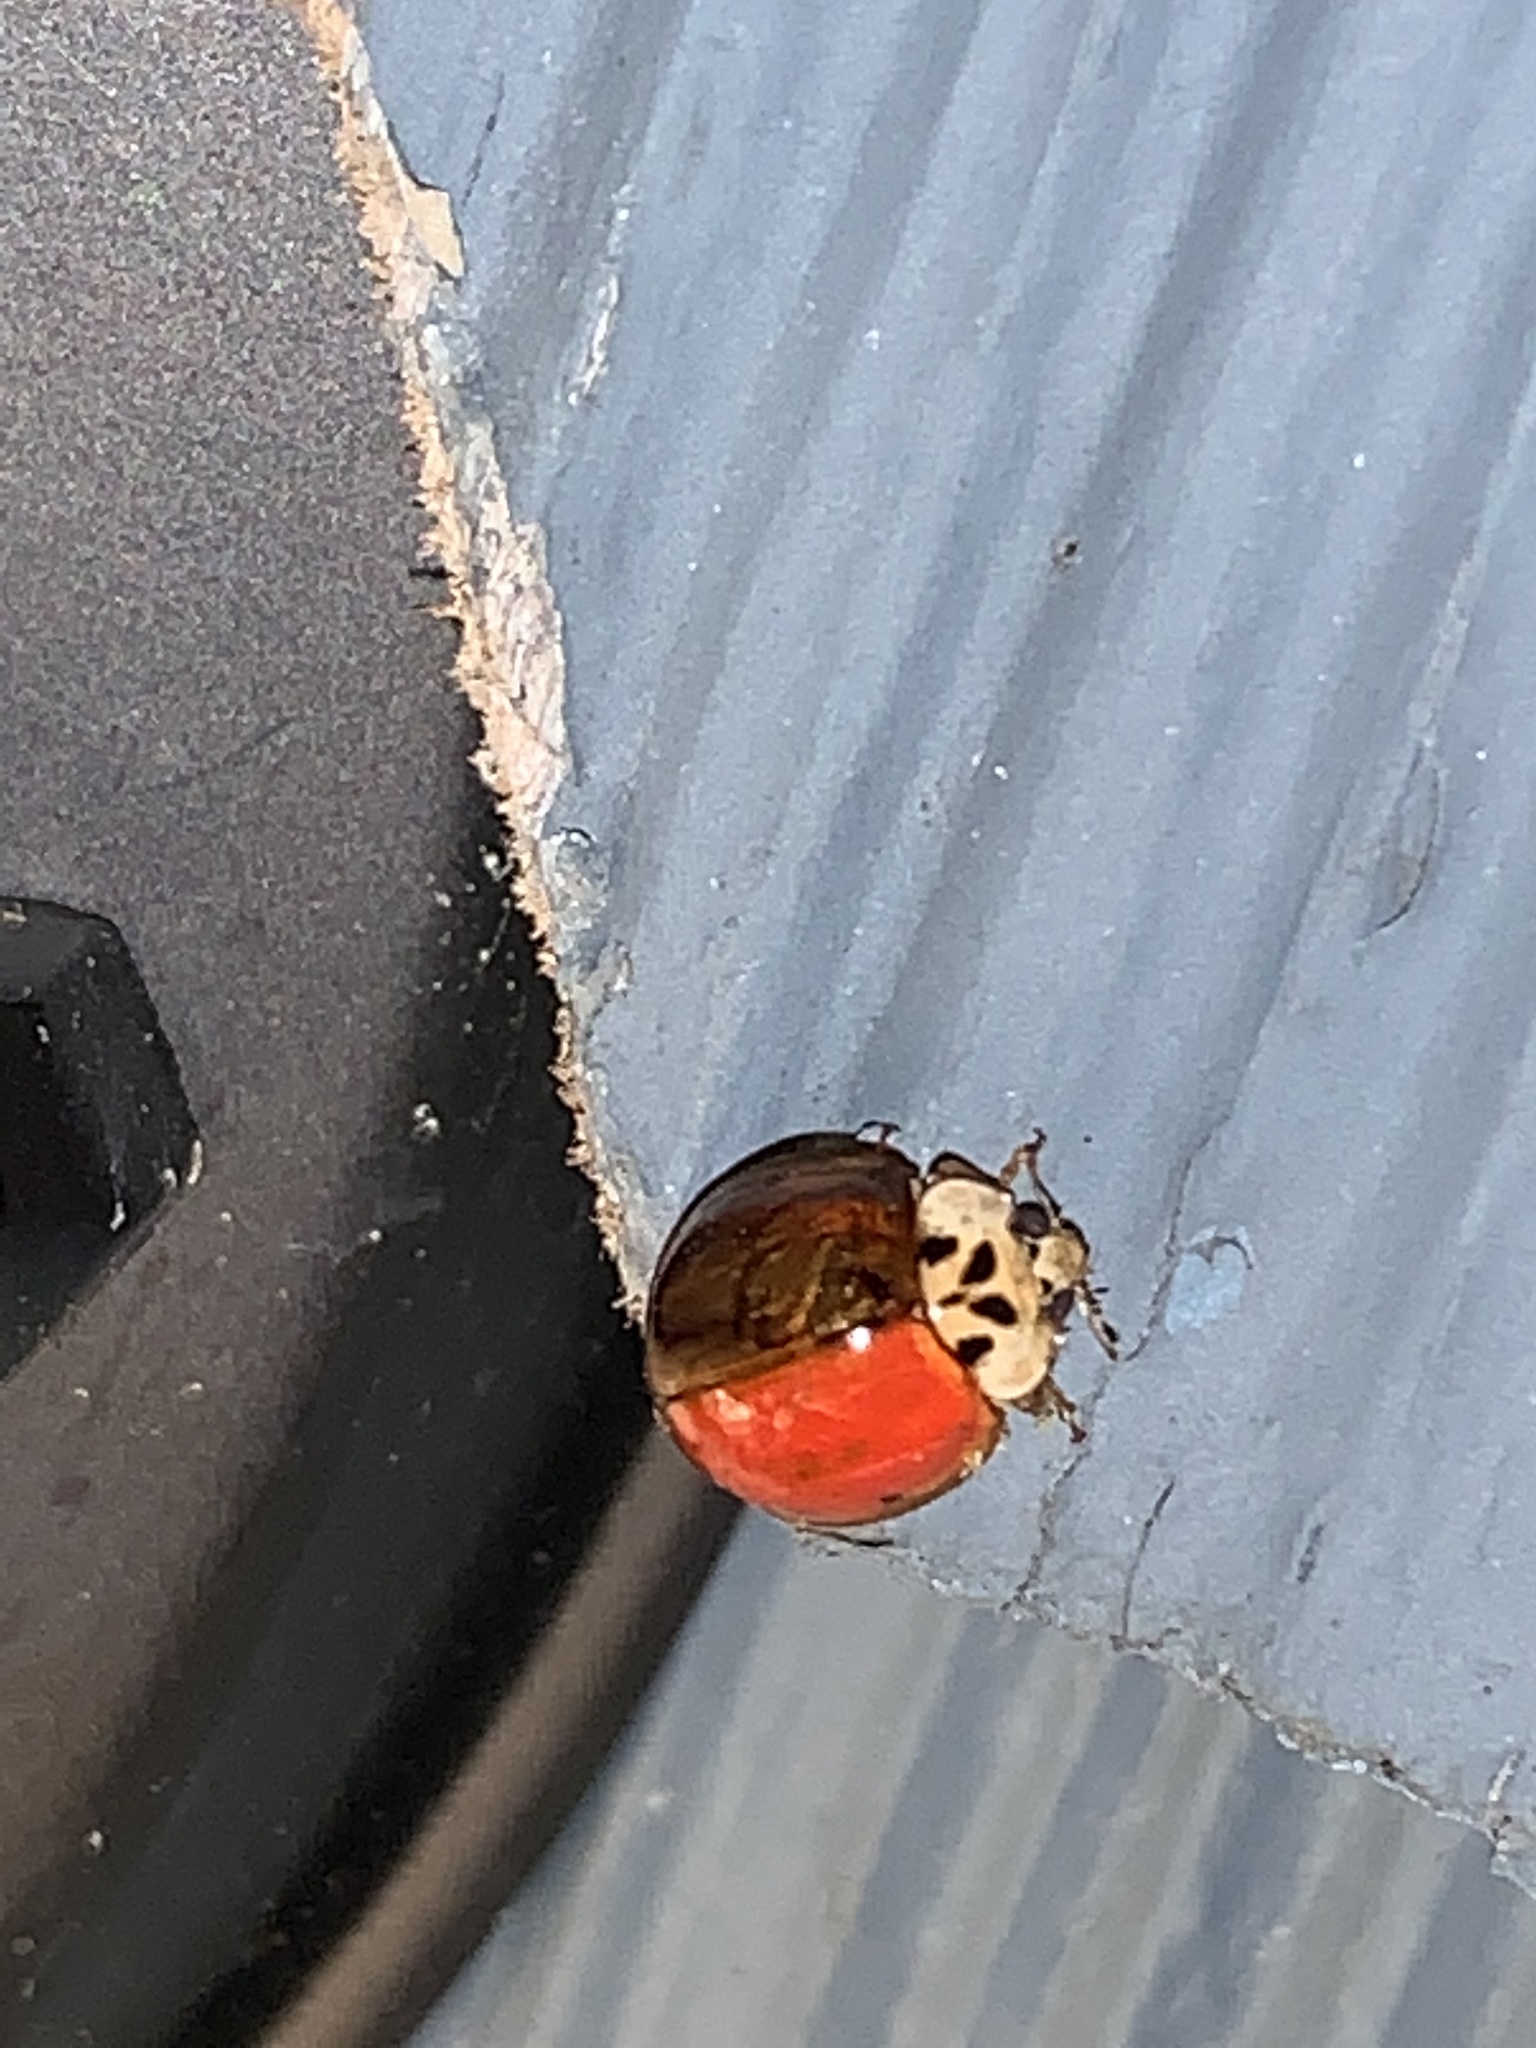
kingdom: Animalia
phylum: Arthropoda
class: Insecta
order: Coleoptera
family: Coccinellidae
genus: Harmonia
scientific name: Harmonia axyridis
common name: Harlequin ladybird
